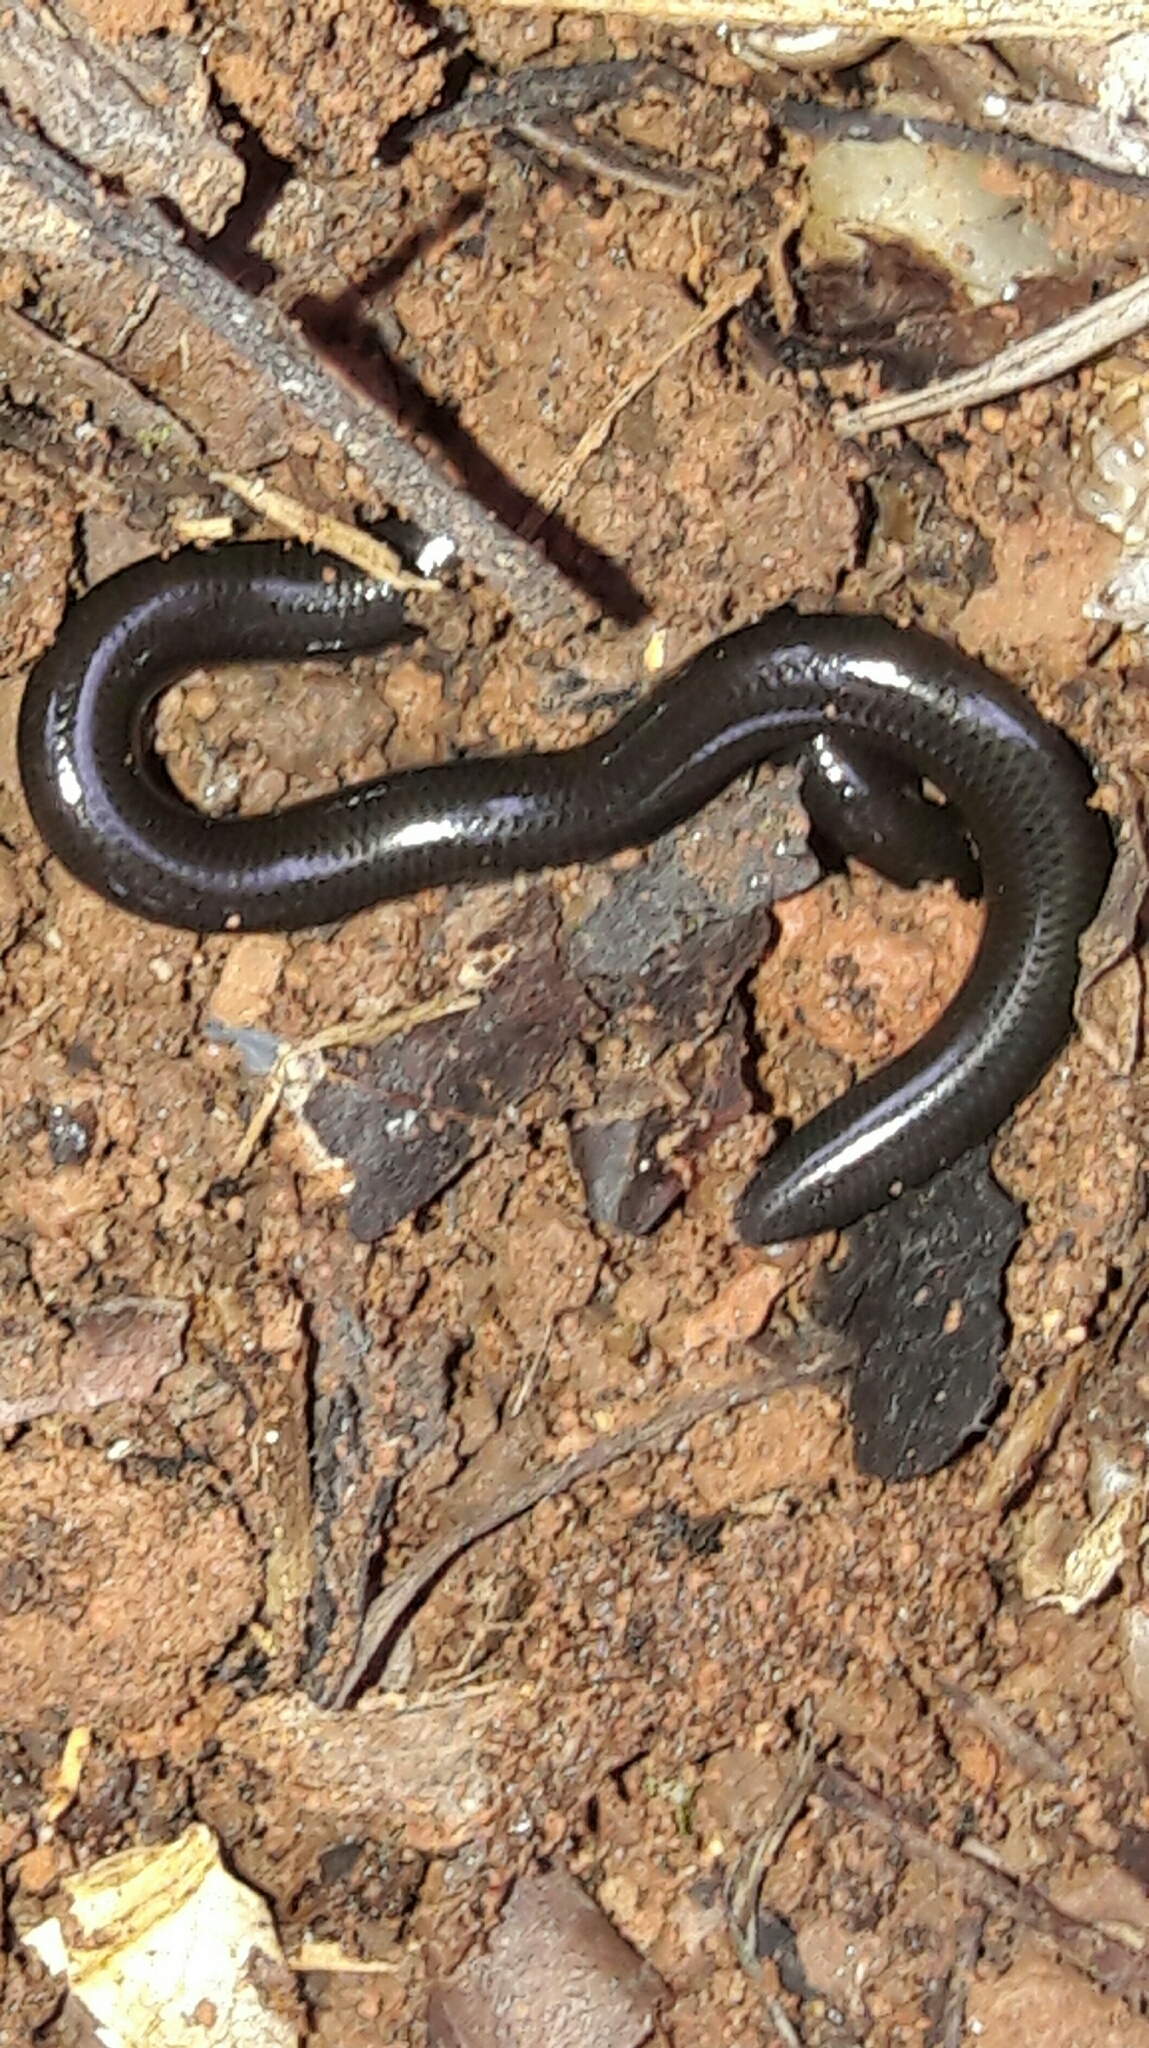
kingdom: Animalia
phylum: Chordata
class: Squamata
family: Anomalepididae
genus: Liotyphlops
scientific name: Liotyphlops ternetzii
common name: Ternetz's blind snake
